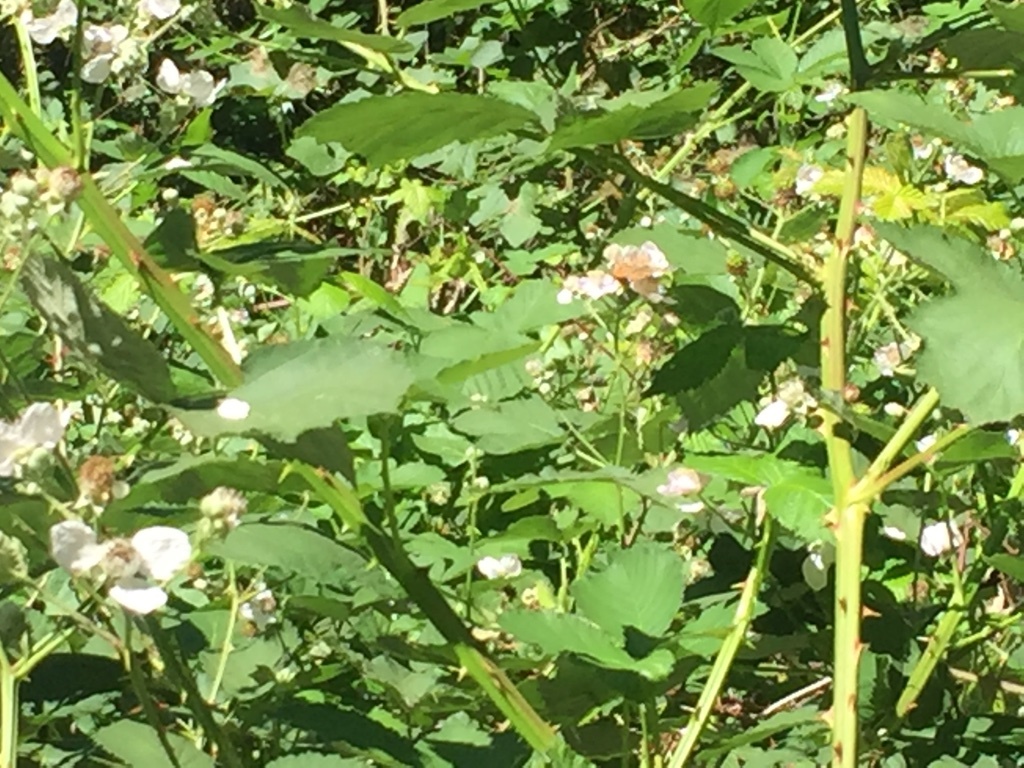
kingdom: Plantae
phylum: Tracheophyta
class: Magnoliopsida
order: Rosales
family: Rosaceae
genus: Rubus
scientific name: Rubus armeniacus
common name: Himalayan blackberry
